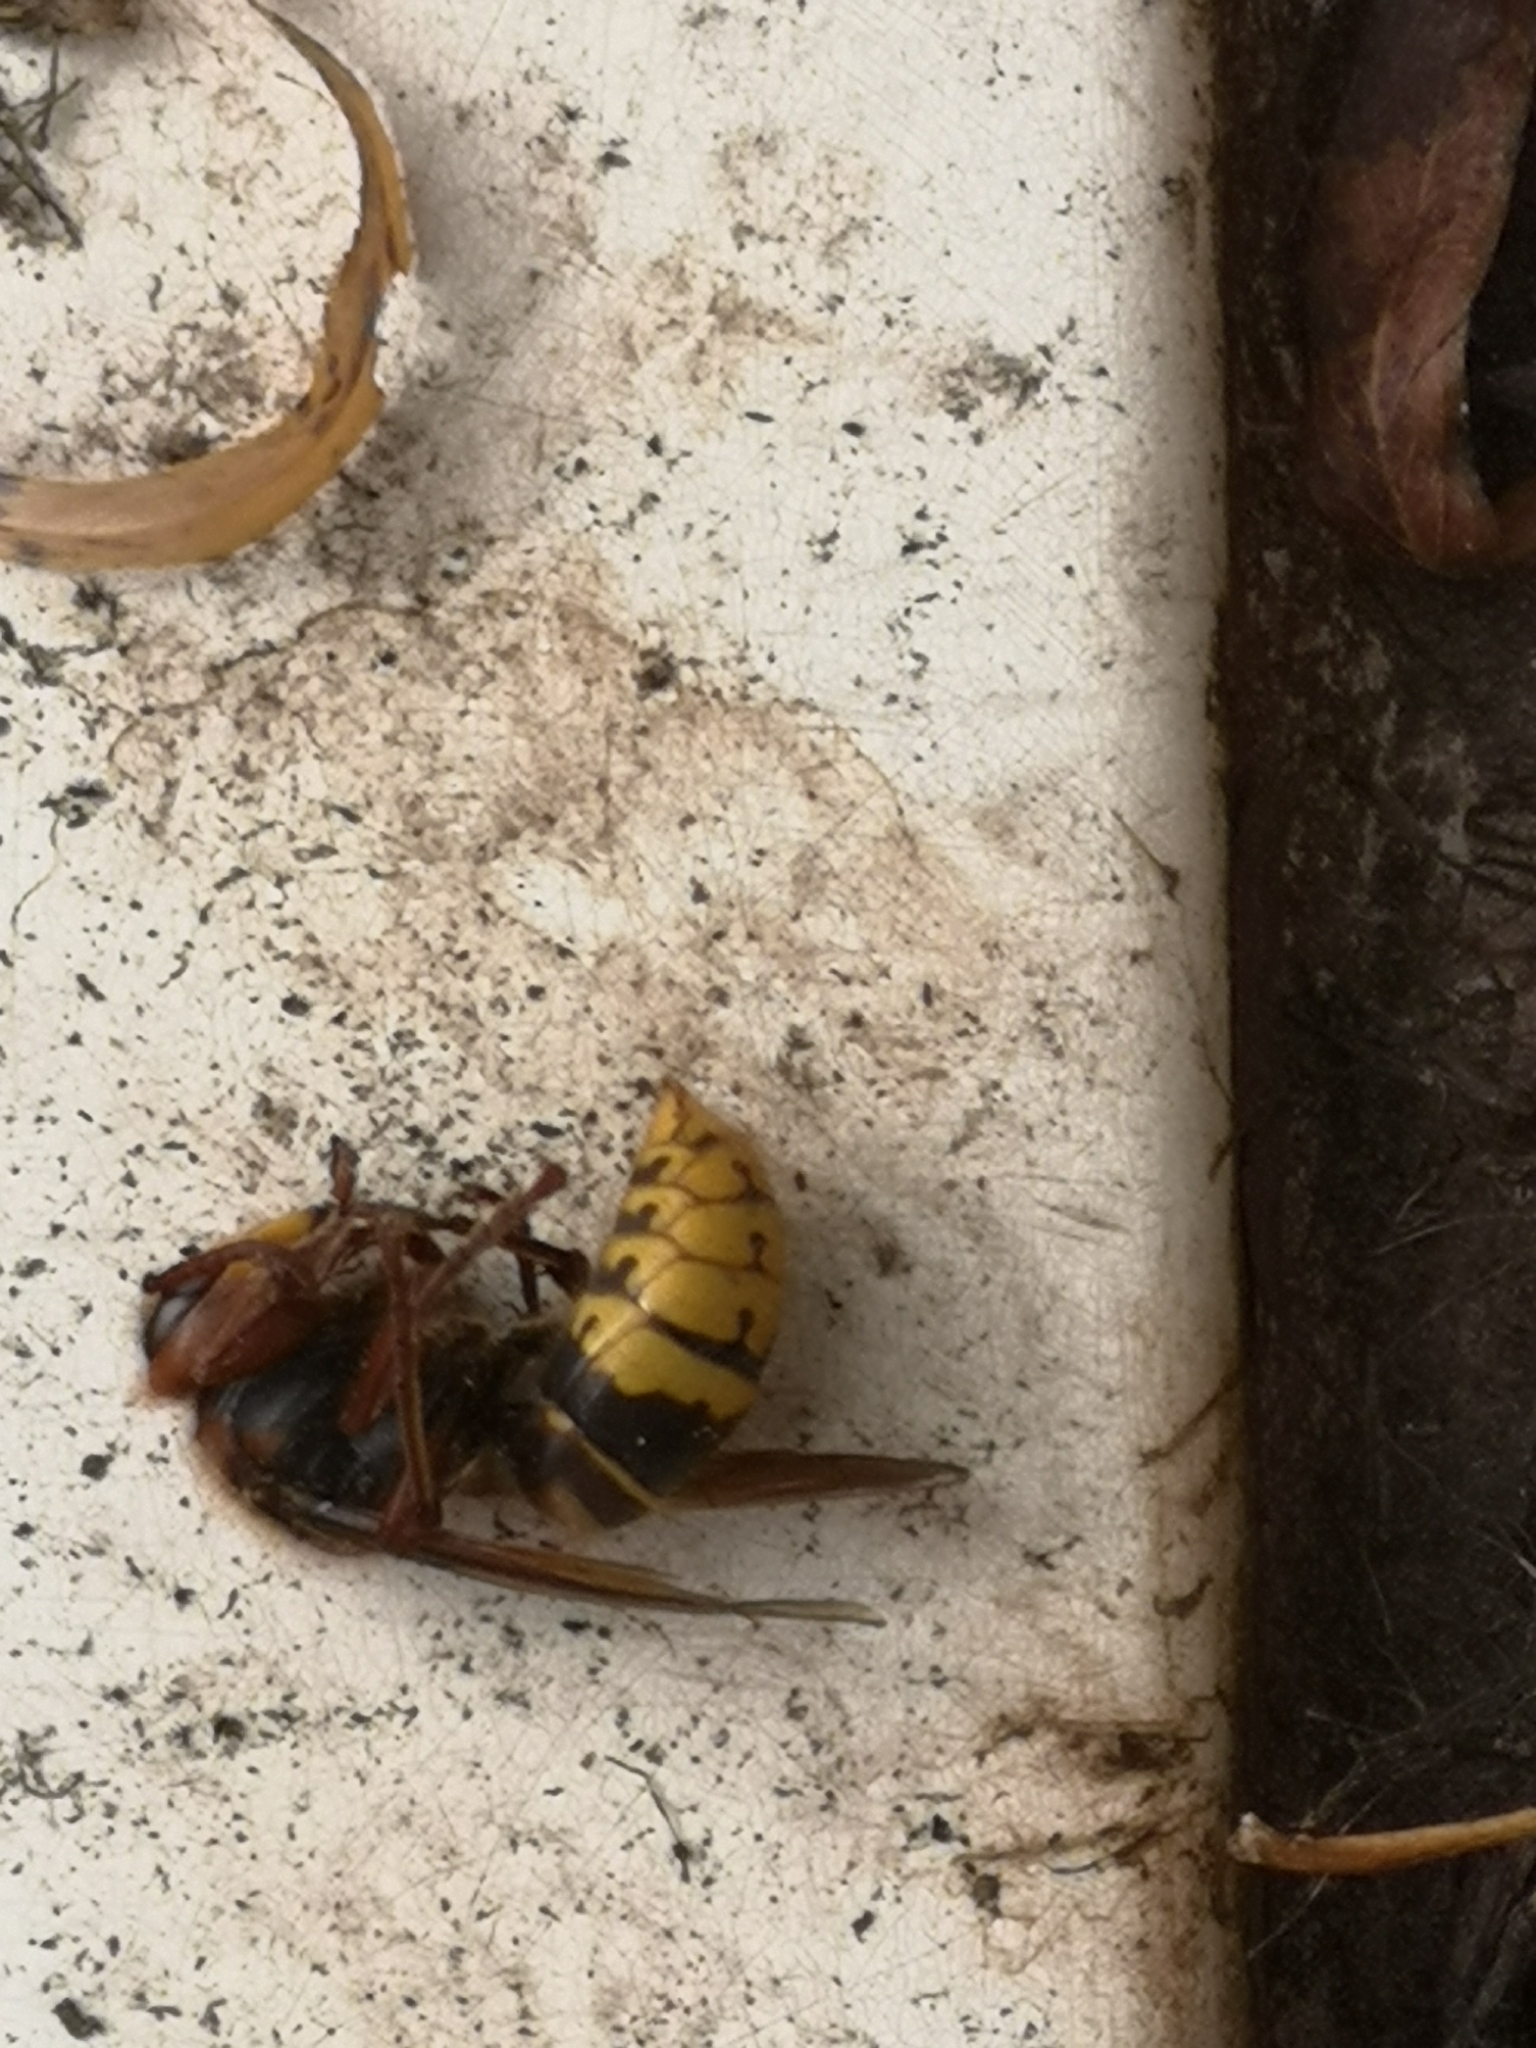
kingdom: Animalia
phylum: Arthropoda
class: Insecta
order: Hymenoptera
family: Vespidae
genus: Vespa
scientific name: Vespa crabro
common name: Hornet
